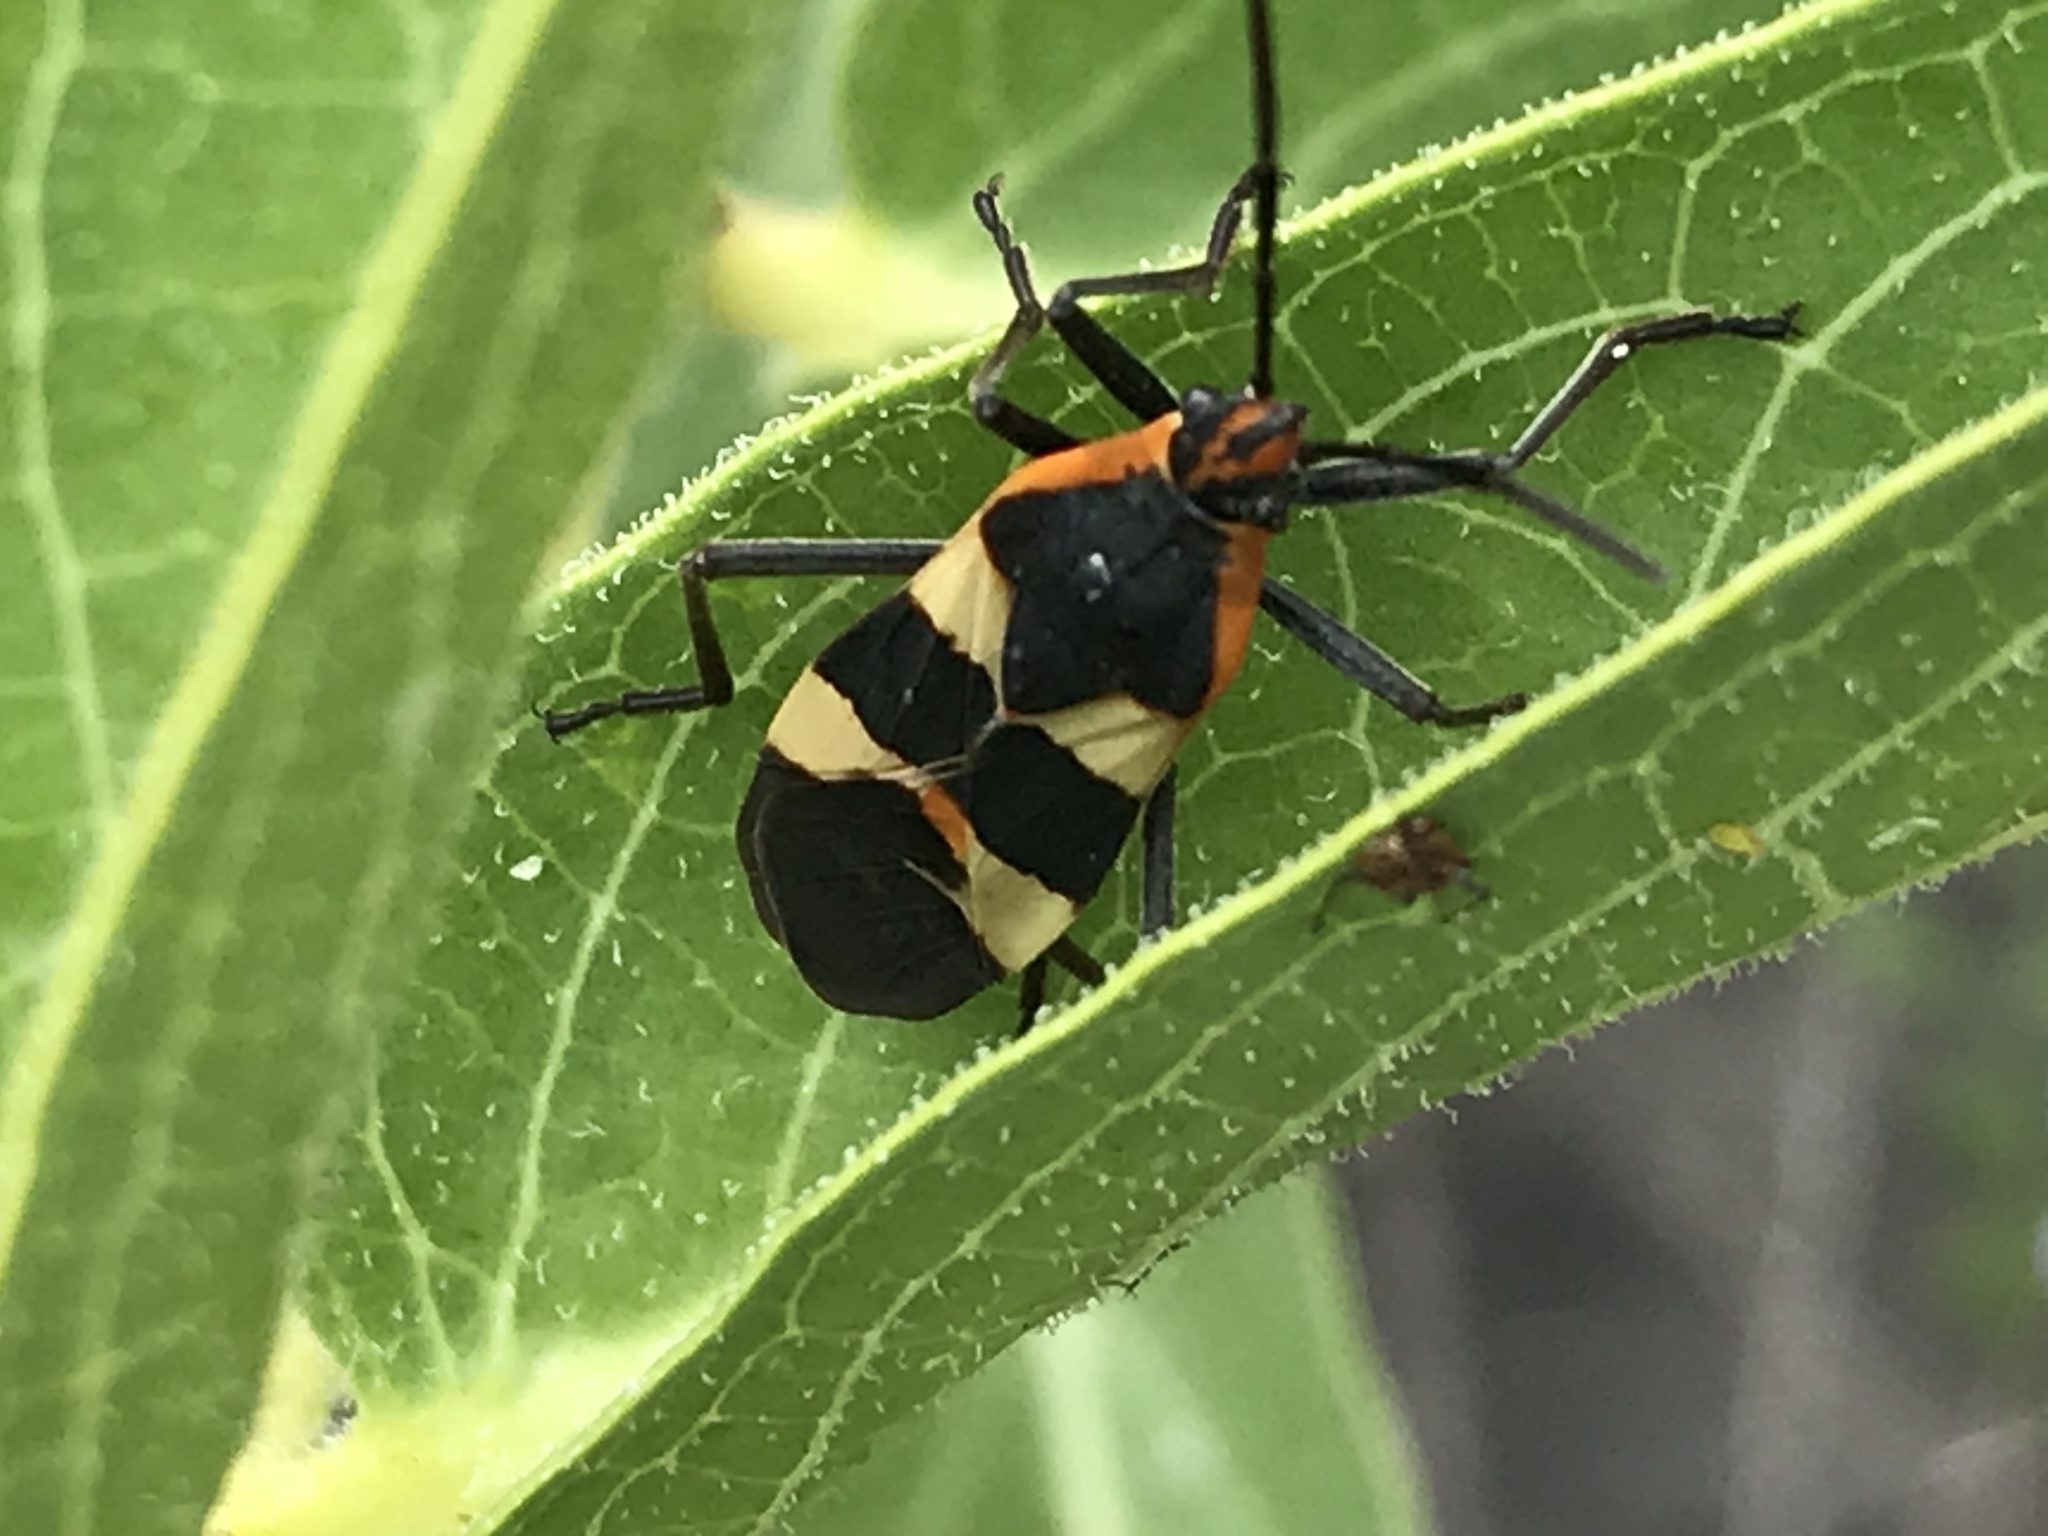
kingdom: Animalia
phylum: Arthropoda
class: Insecta
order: Hemiptera
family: Lygaeidae
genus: Oncopeltus
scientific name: Oncopeltus fasciatus
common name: Large milkweed bug
